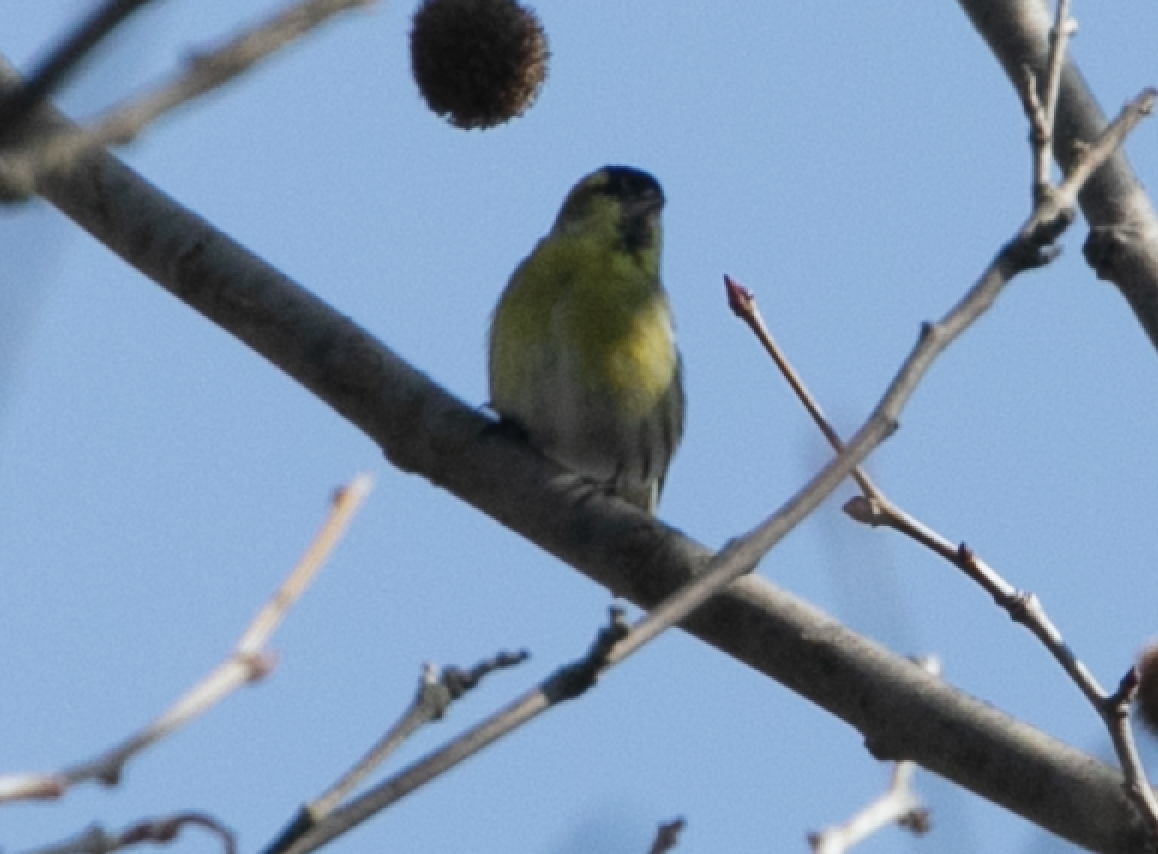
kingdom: Animalia
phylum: Chordata
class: Aves
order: Passeriformes
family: Fringillidae
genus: Spinus
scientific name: Spinus spinus
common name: Eurasian siskin
